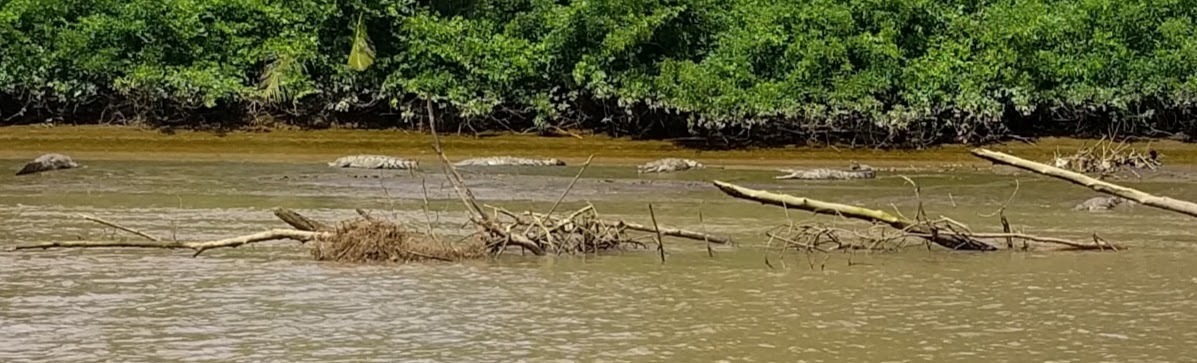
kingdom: Animalia
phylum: Chordata
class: Crocodylia
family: Crocodylidae
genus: Crocodylus
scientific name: Crocodylus acutus
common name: American crocodile
